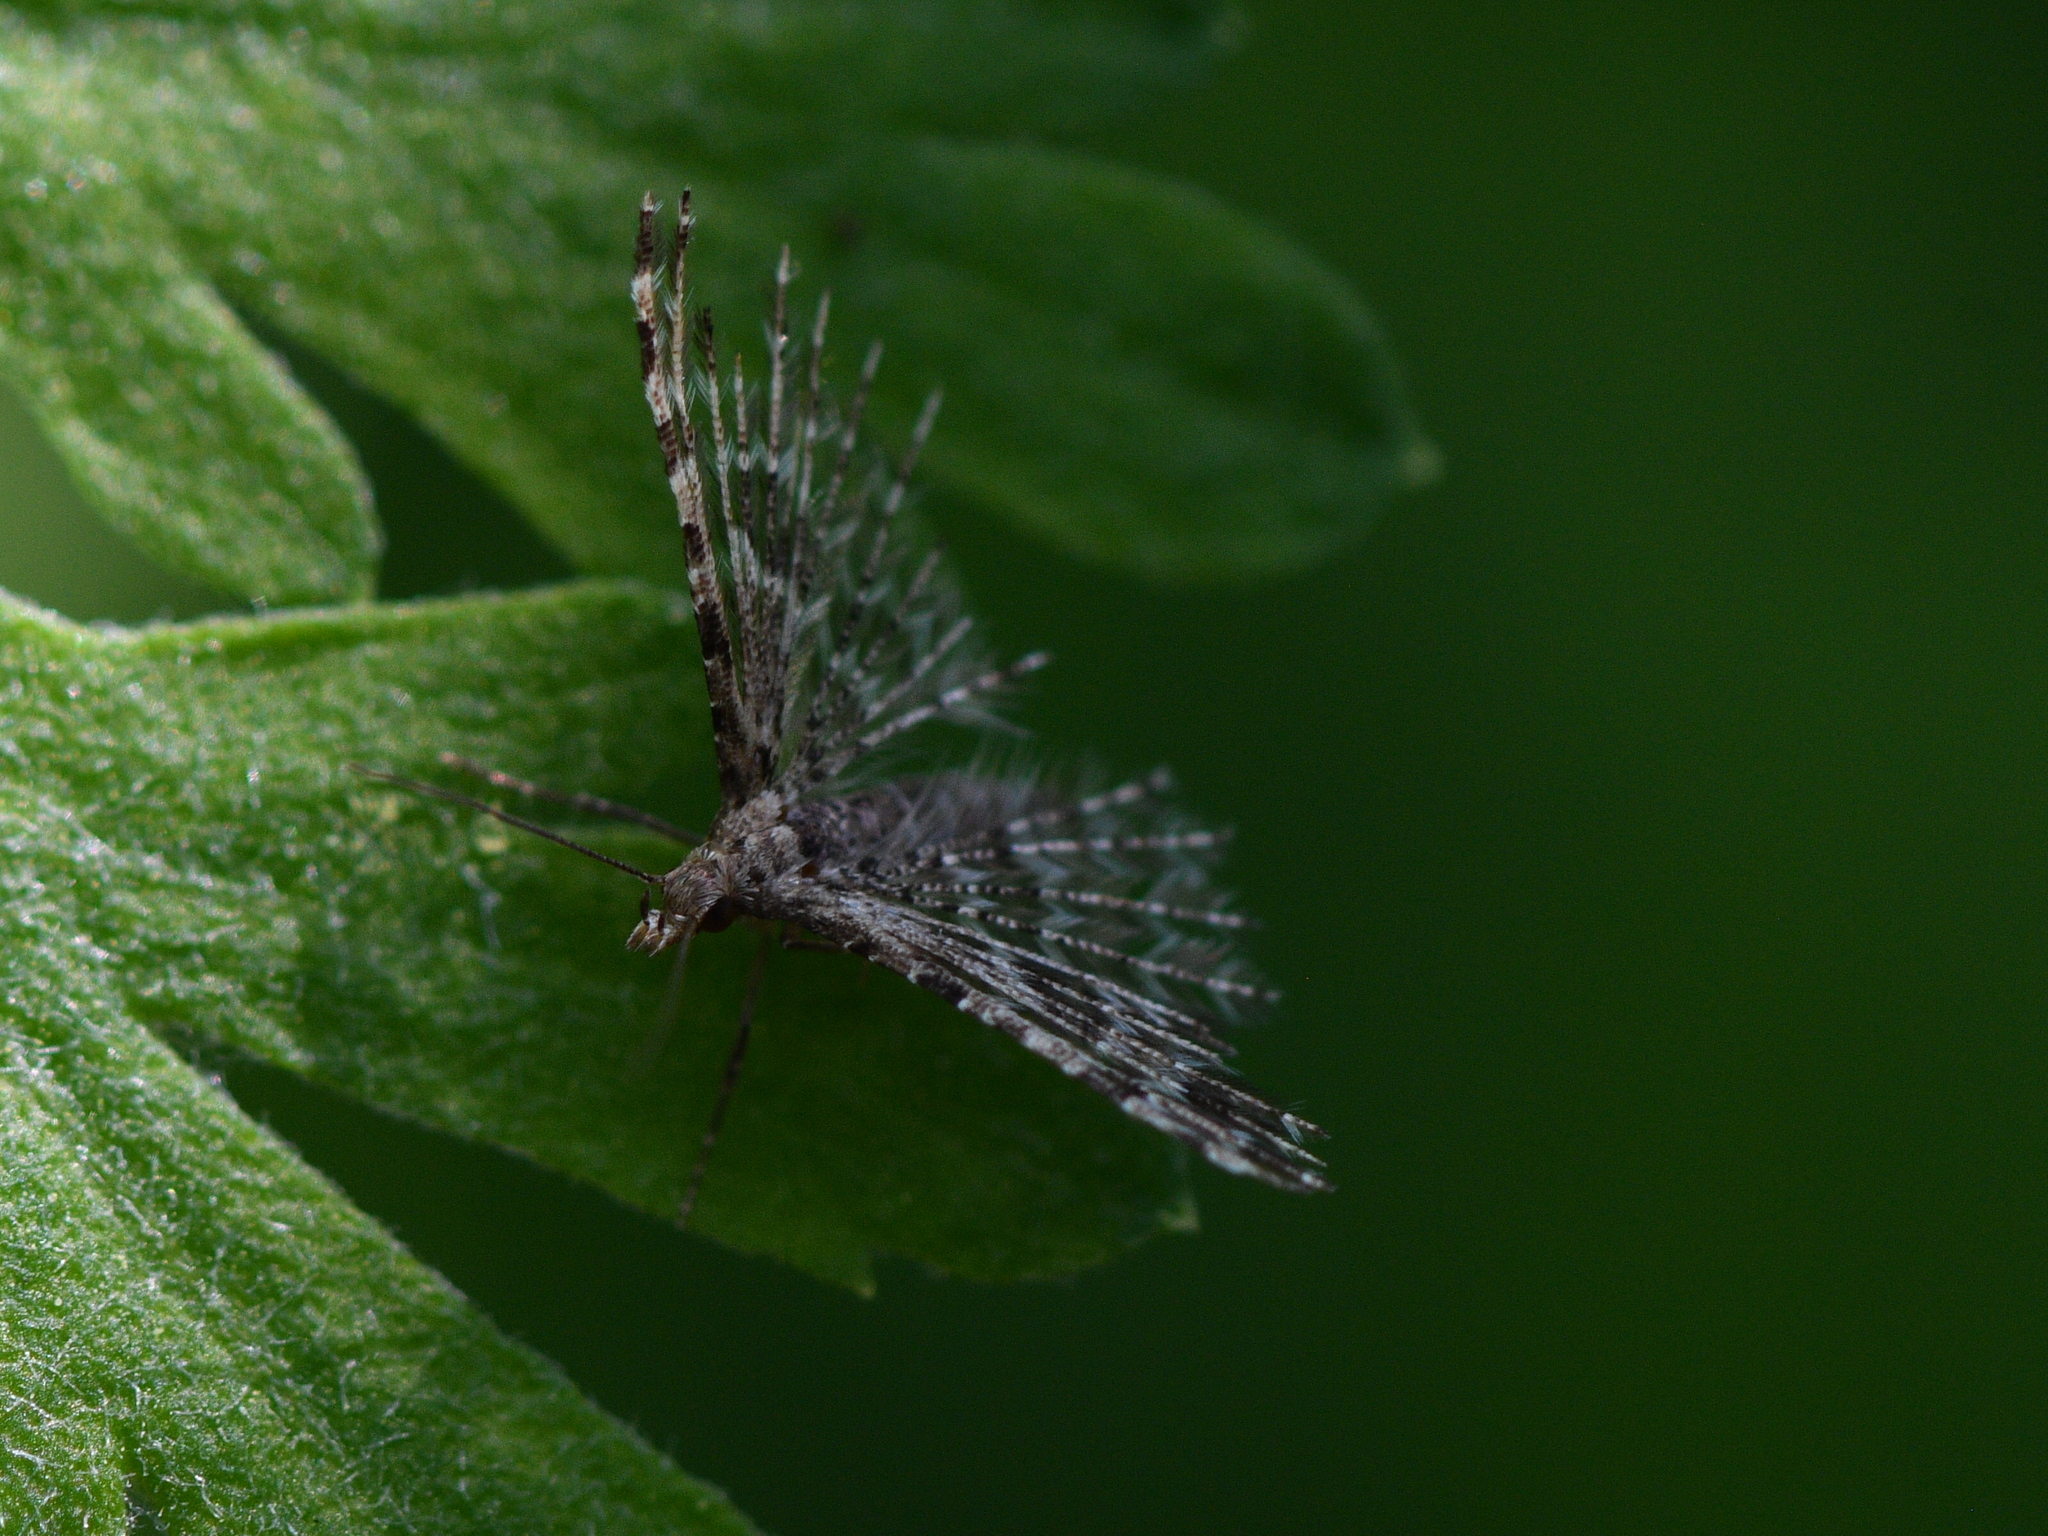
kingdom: Animalia
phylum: Arthropoda
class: Insecta
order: Lepidoptera
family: Alucitidae
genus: Alucita
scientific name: Alucita montana
